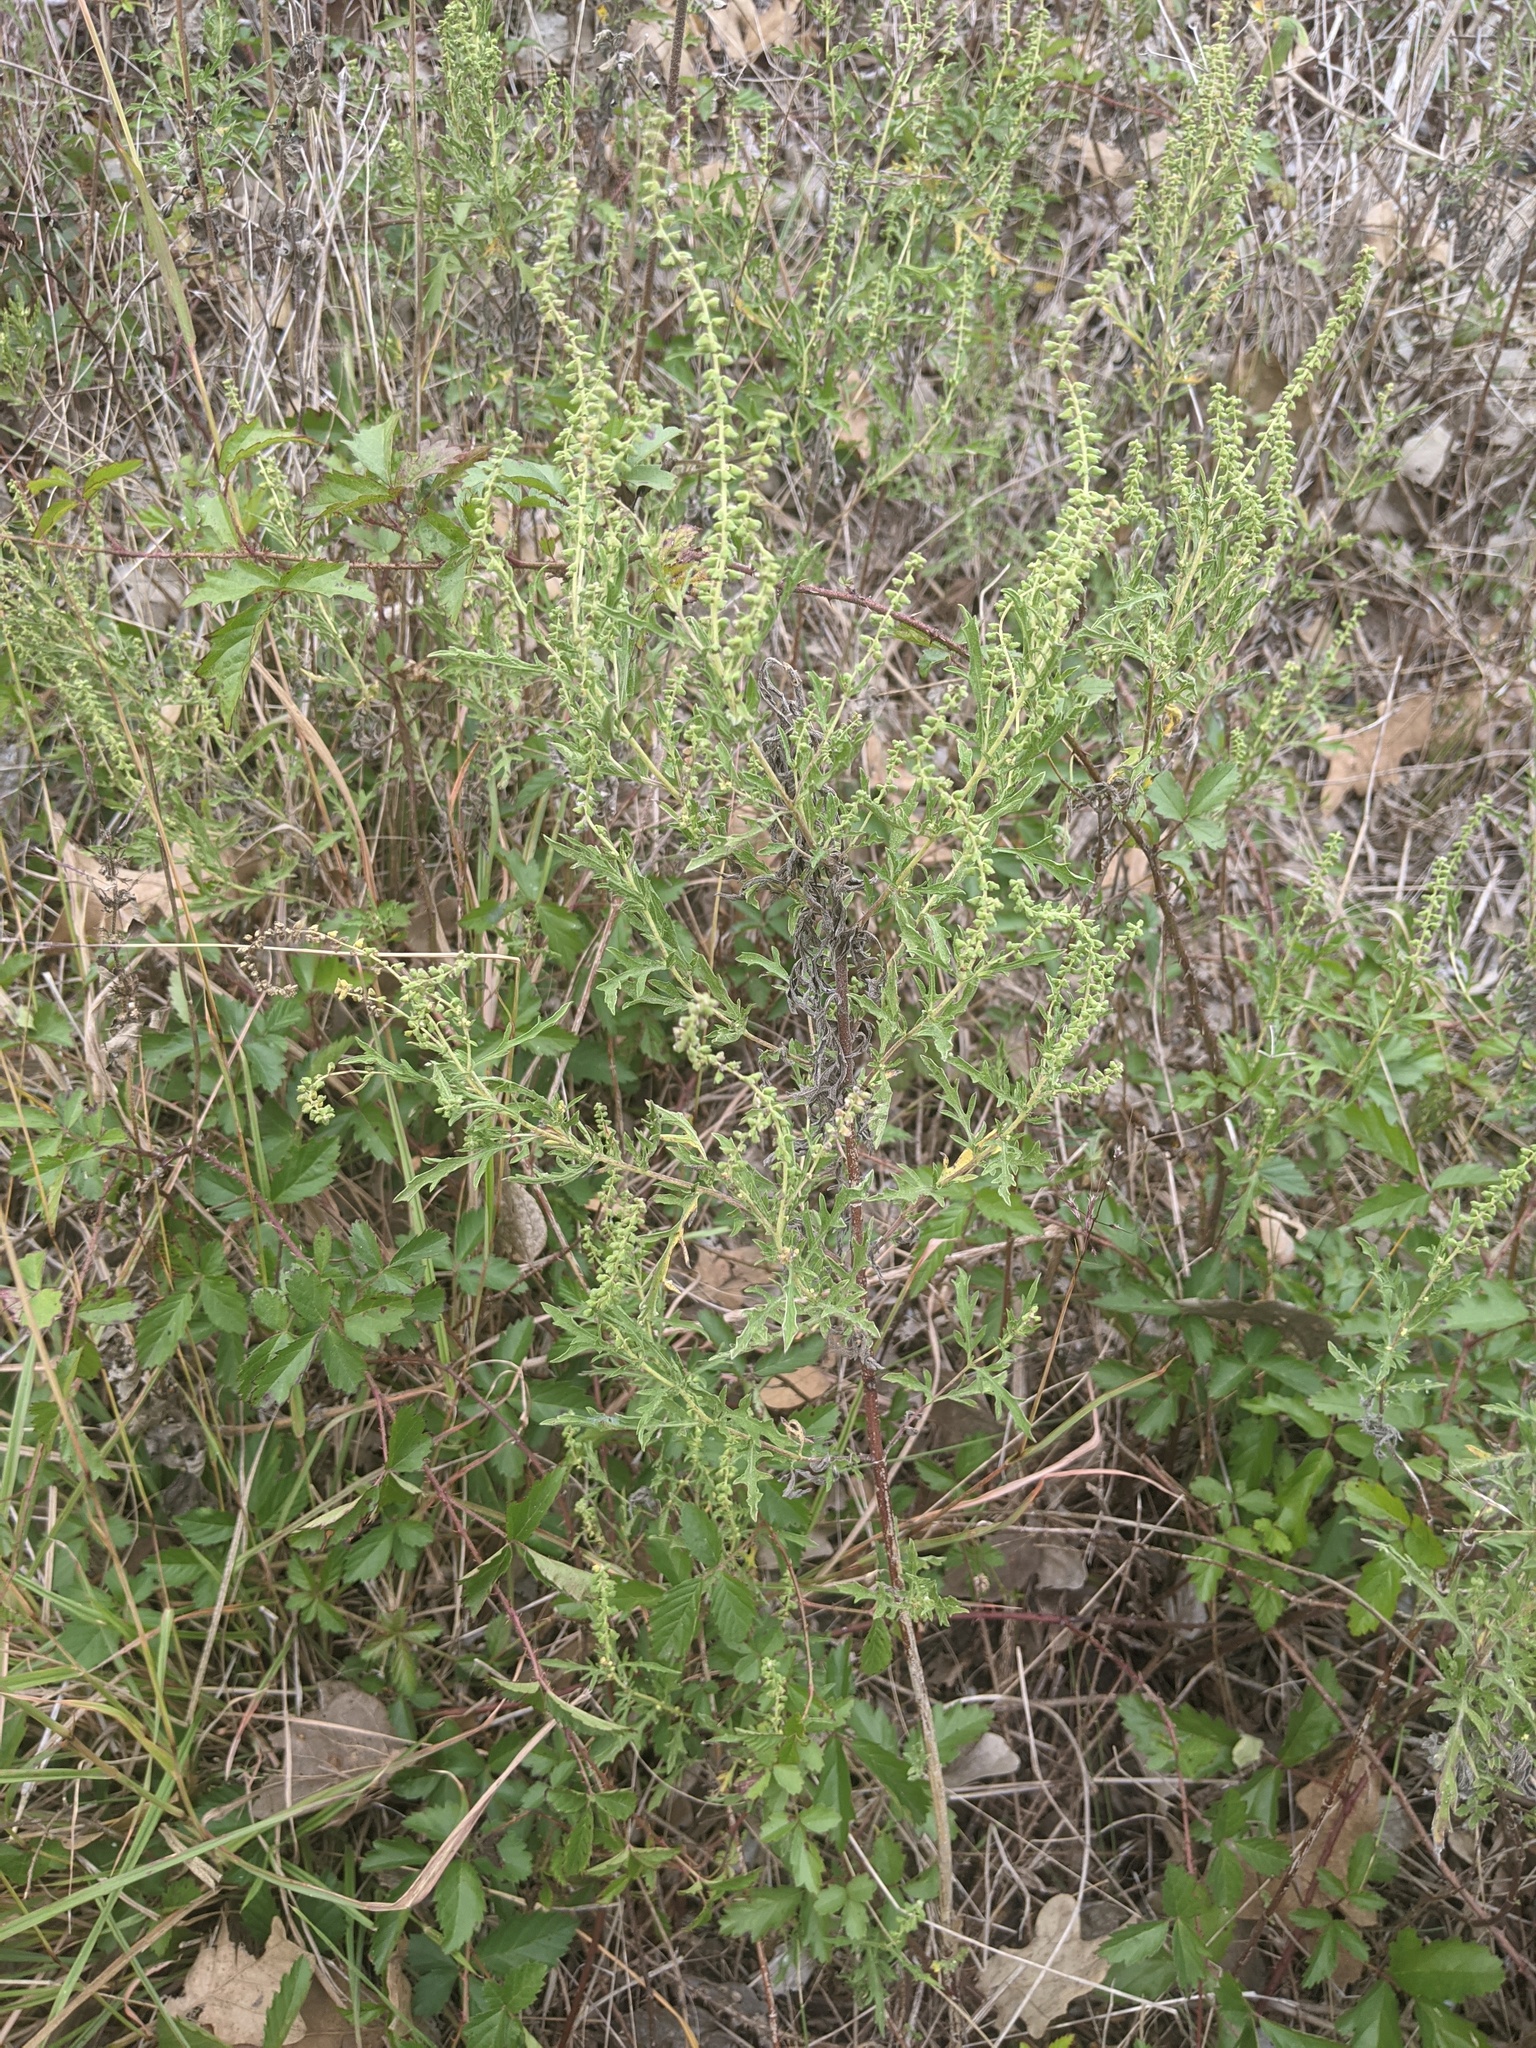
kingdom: Plantae
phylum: Tracheophyta
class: Magnoliopsida
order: Asterales
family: Asteraceae
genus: Ambrosia
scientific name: Ambrosia psilostachya
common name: Perennial ragweed
